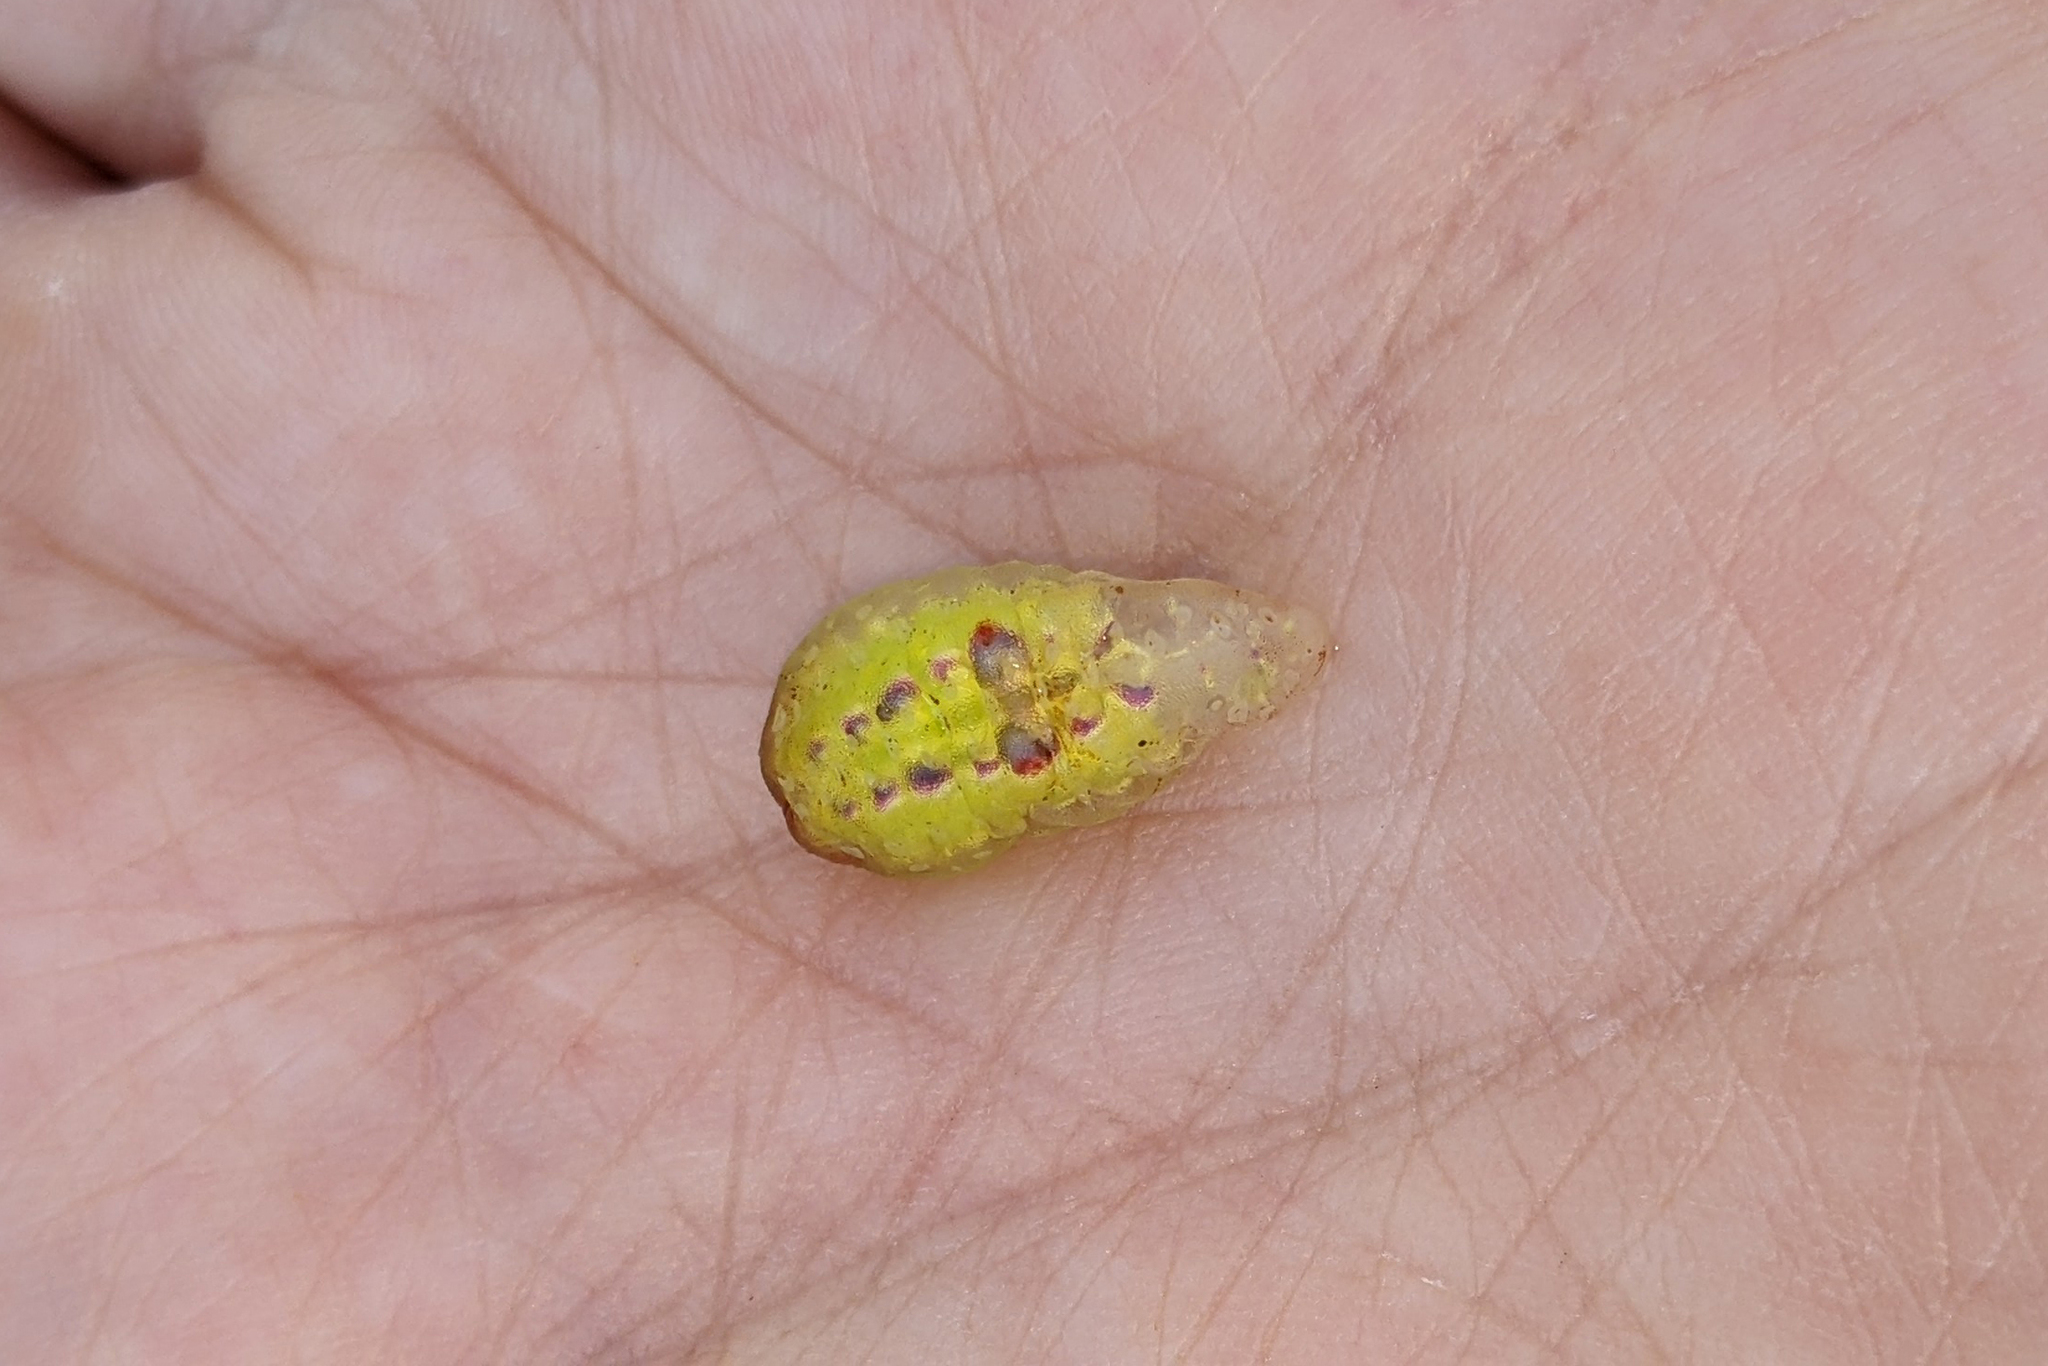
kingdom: Animalia
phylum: Arthropoda
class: Insecta
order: Lepidoptera
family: Limacodidae
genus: Hoyosia
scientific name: Hoyosia codeti
